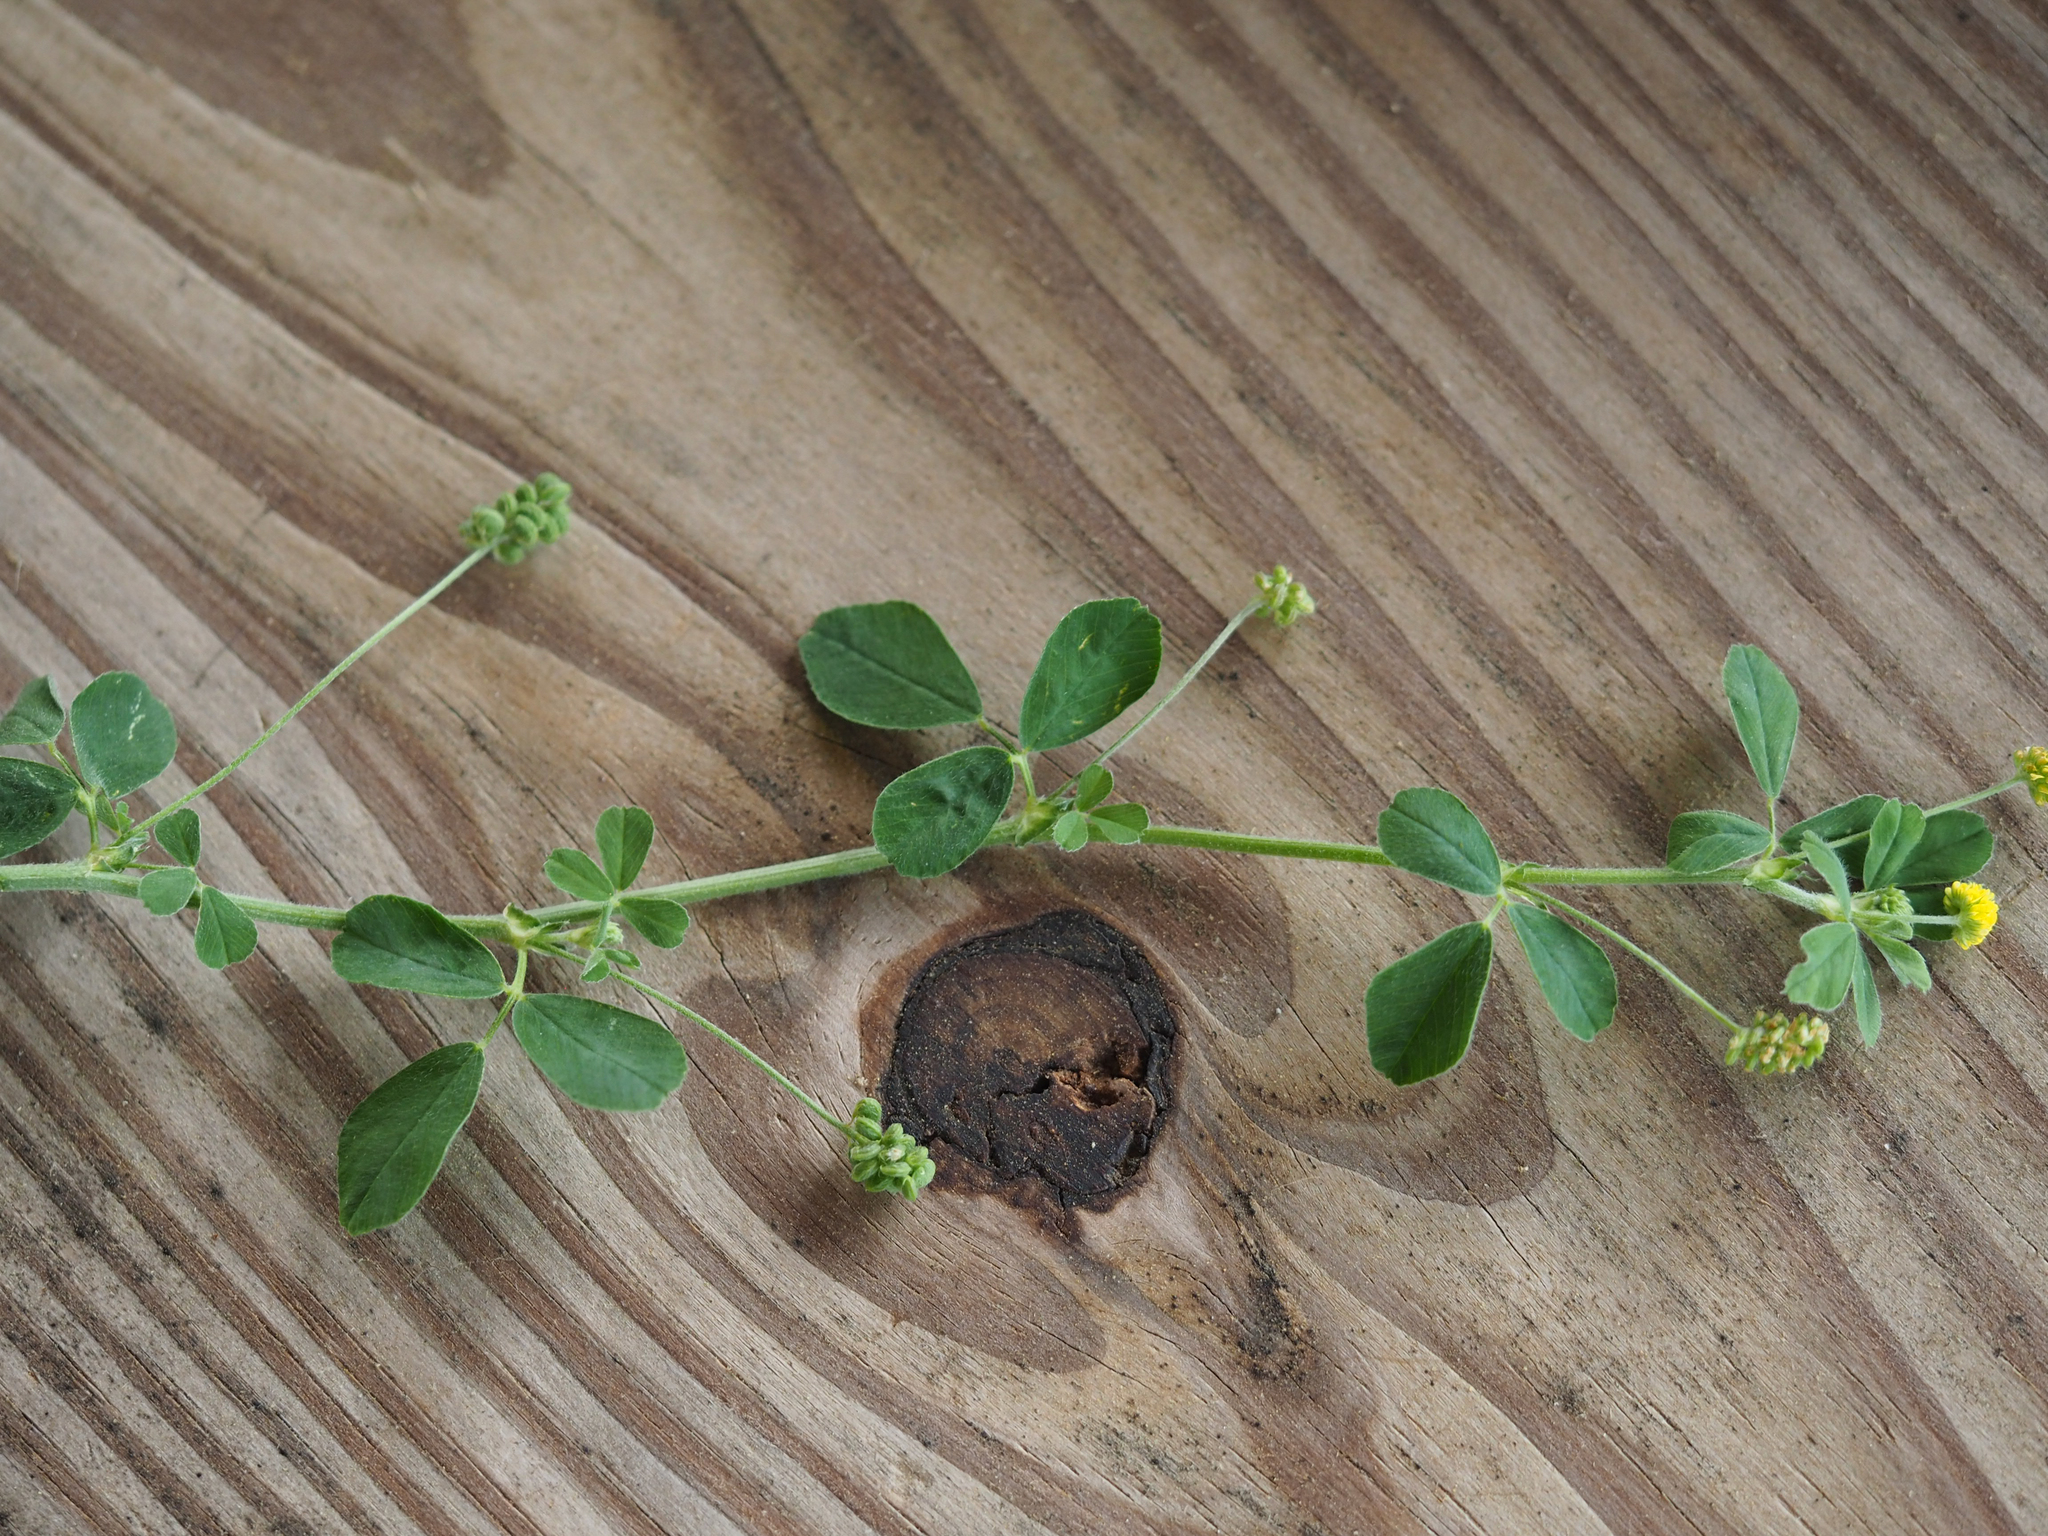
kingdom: Plantae
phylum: Tracheophyta
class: Magnoliopsida
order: Fabales
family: Fabaceae
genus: Medicago
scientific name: Medicago lupulina
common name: Black medick
